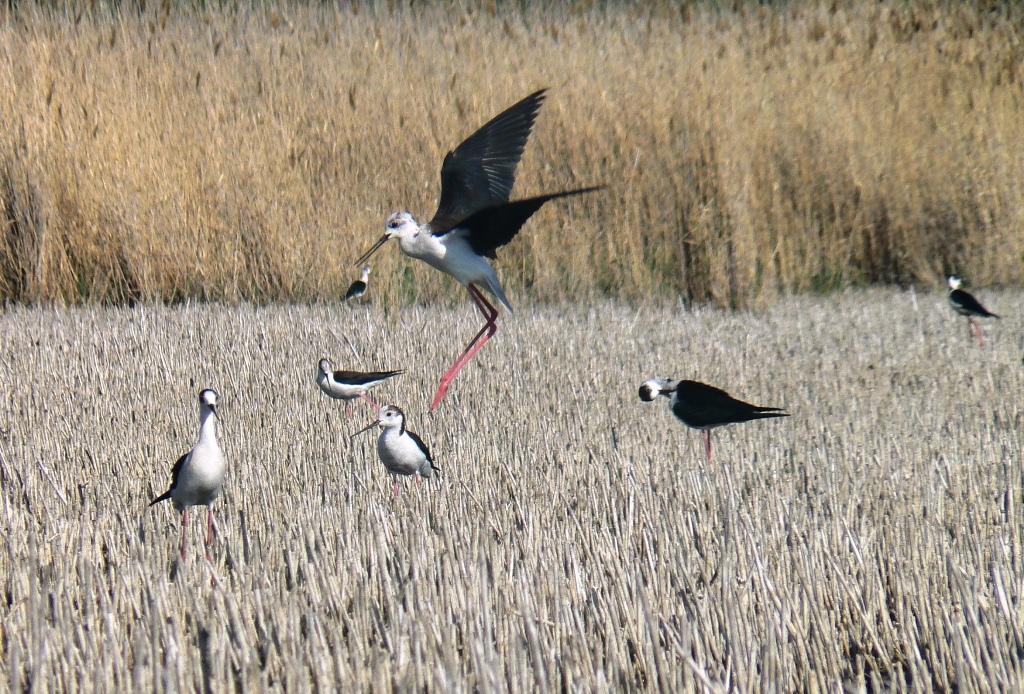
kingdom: Animalia
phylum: Chordata
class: Aves
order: Charadriiformes
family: Recurvirostridae
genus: Himantopus
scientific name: Himantopus himantopus
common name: Black-winged stilt
